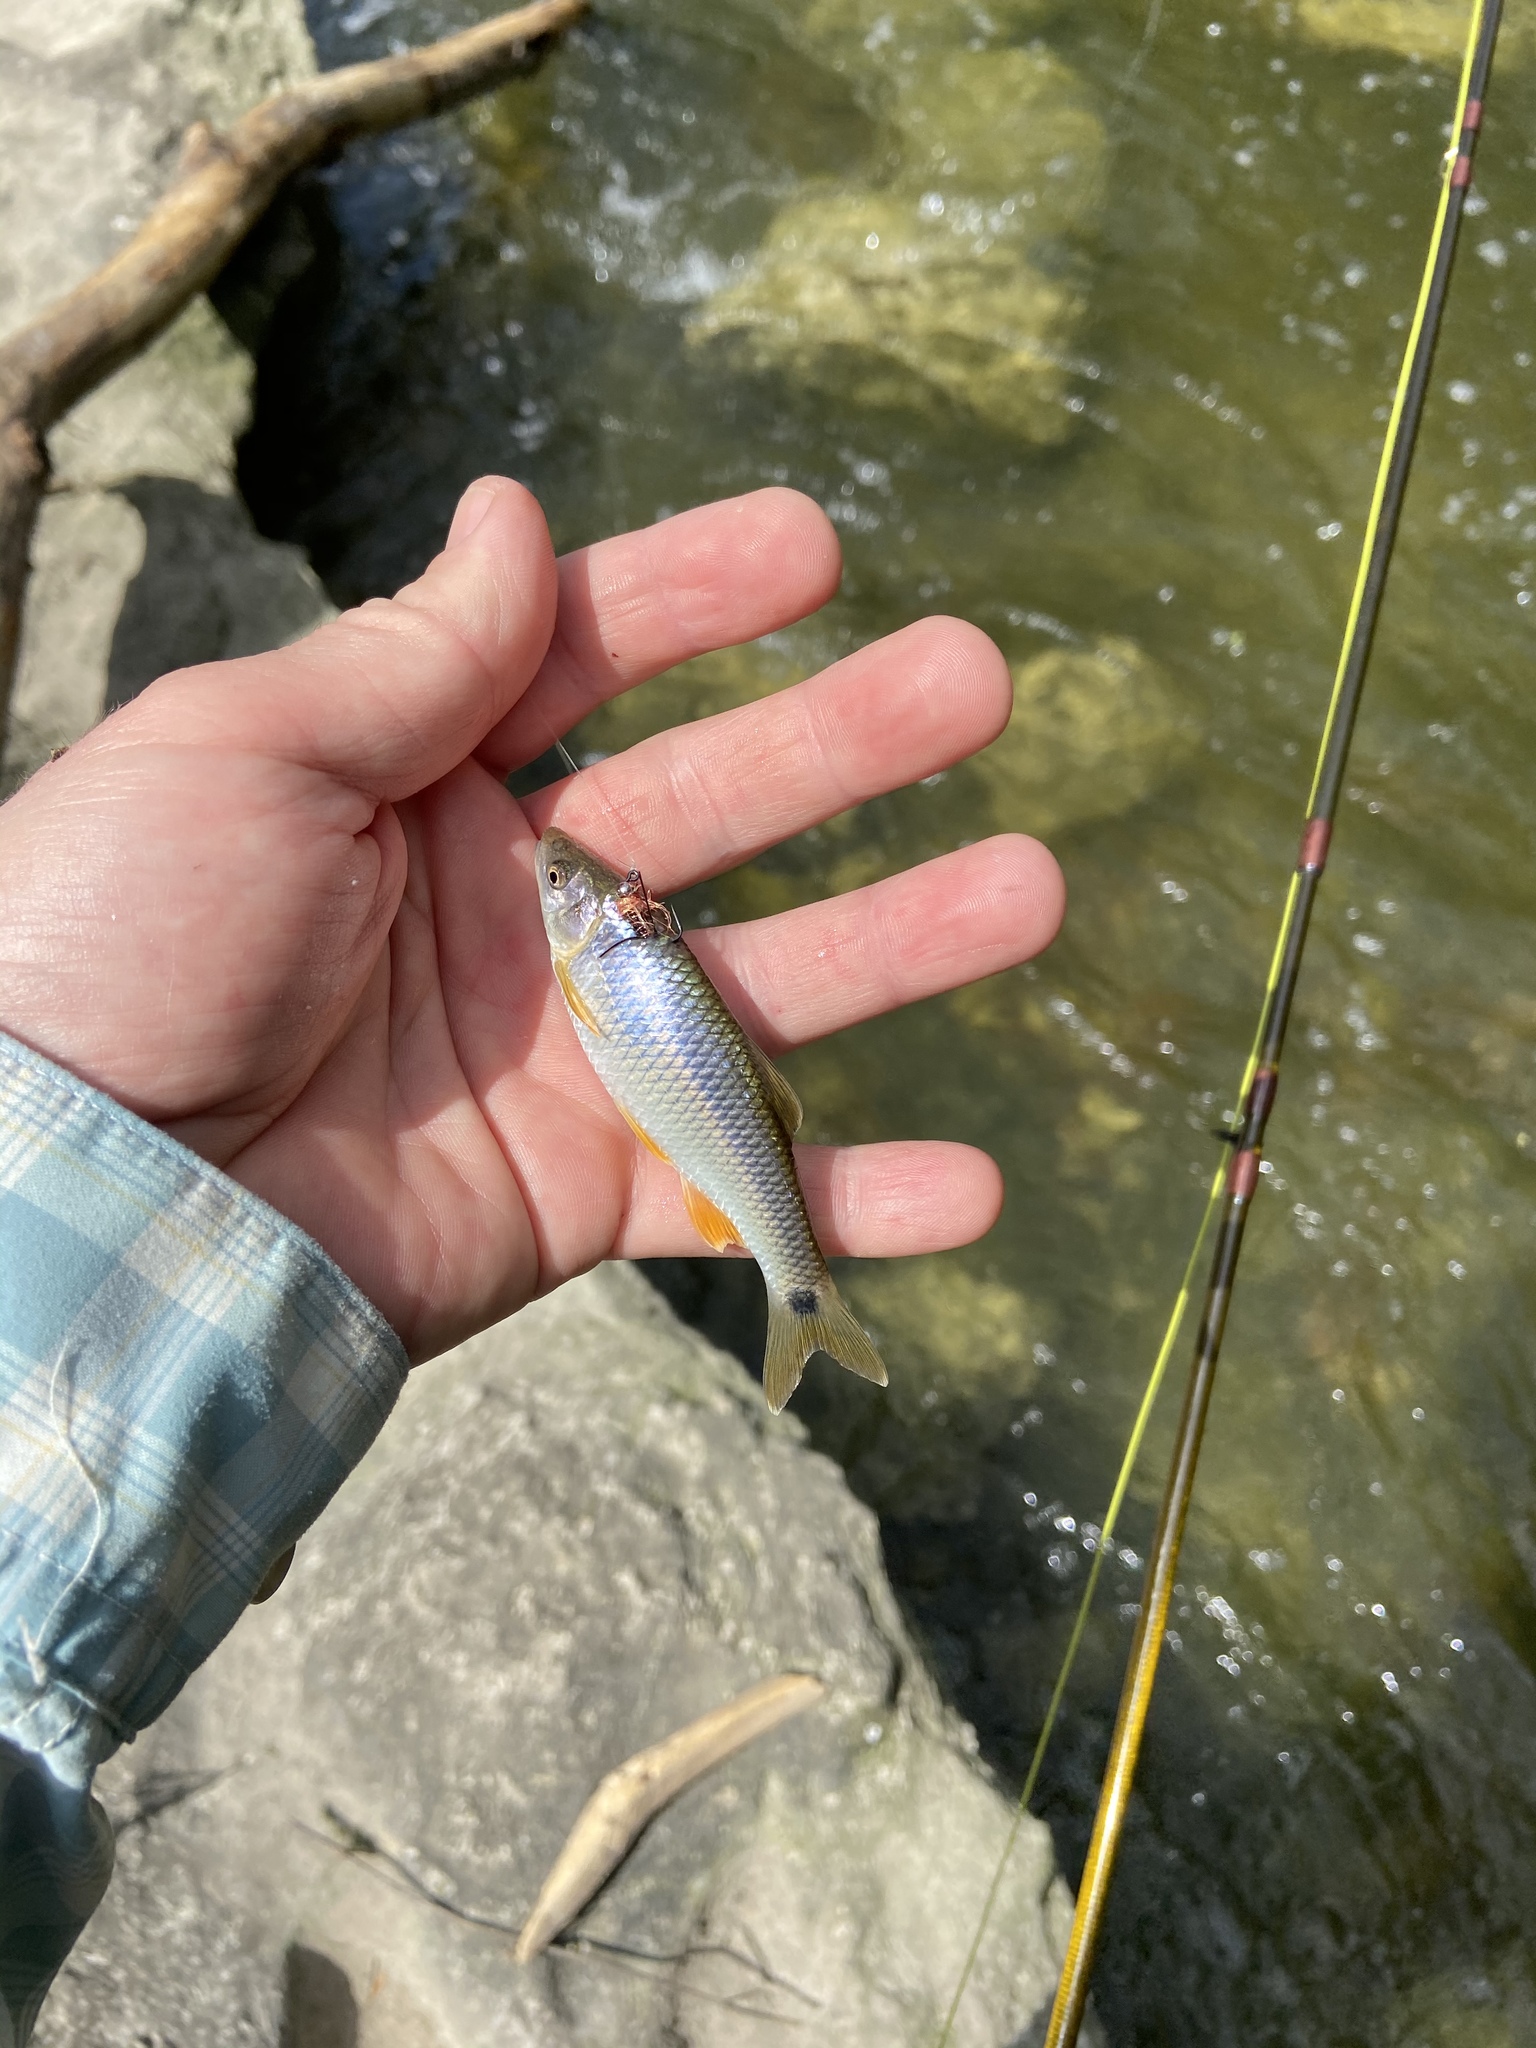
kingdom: Animalia
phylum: Chordata
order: Cypriniformes
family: Cyprinidae
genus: Cyprinella
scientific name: Cyprinella venusta
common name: Blacktail shiner
